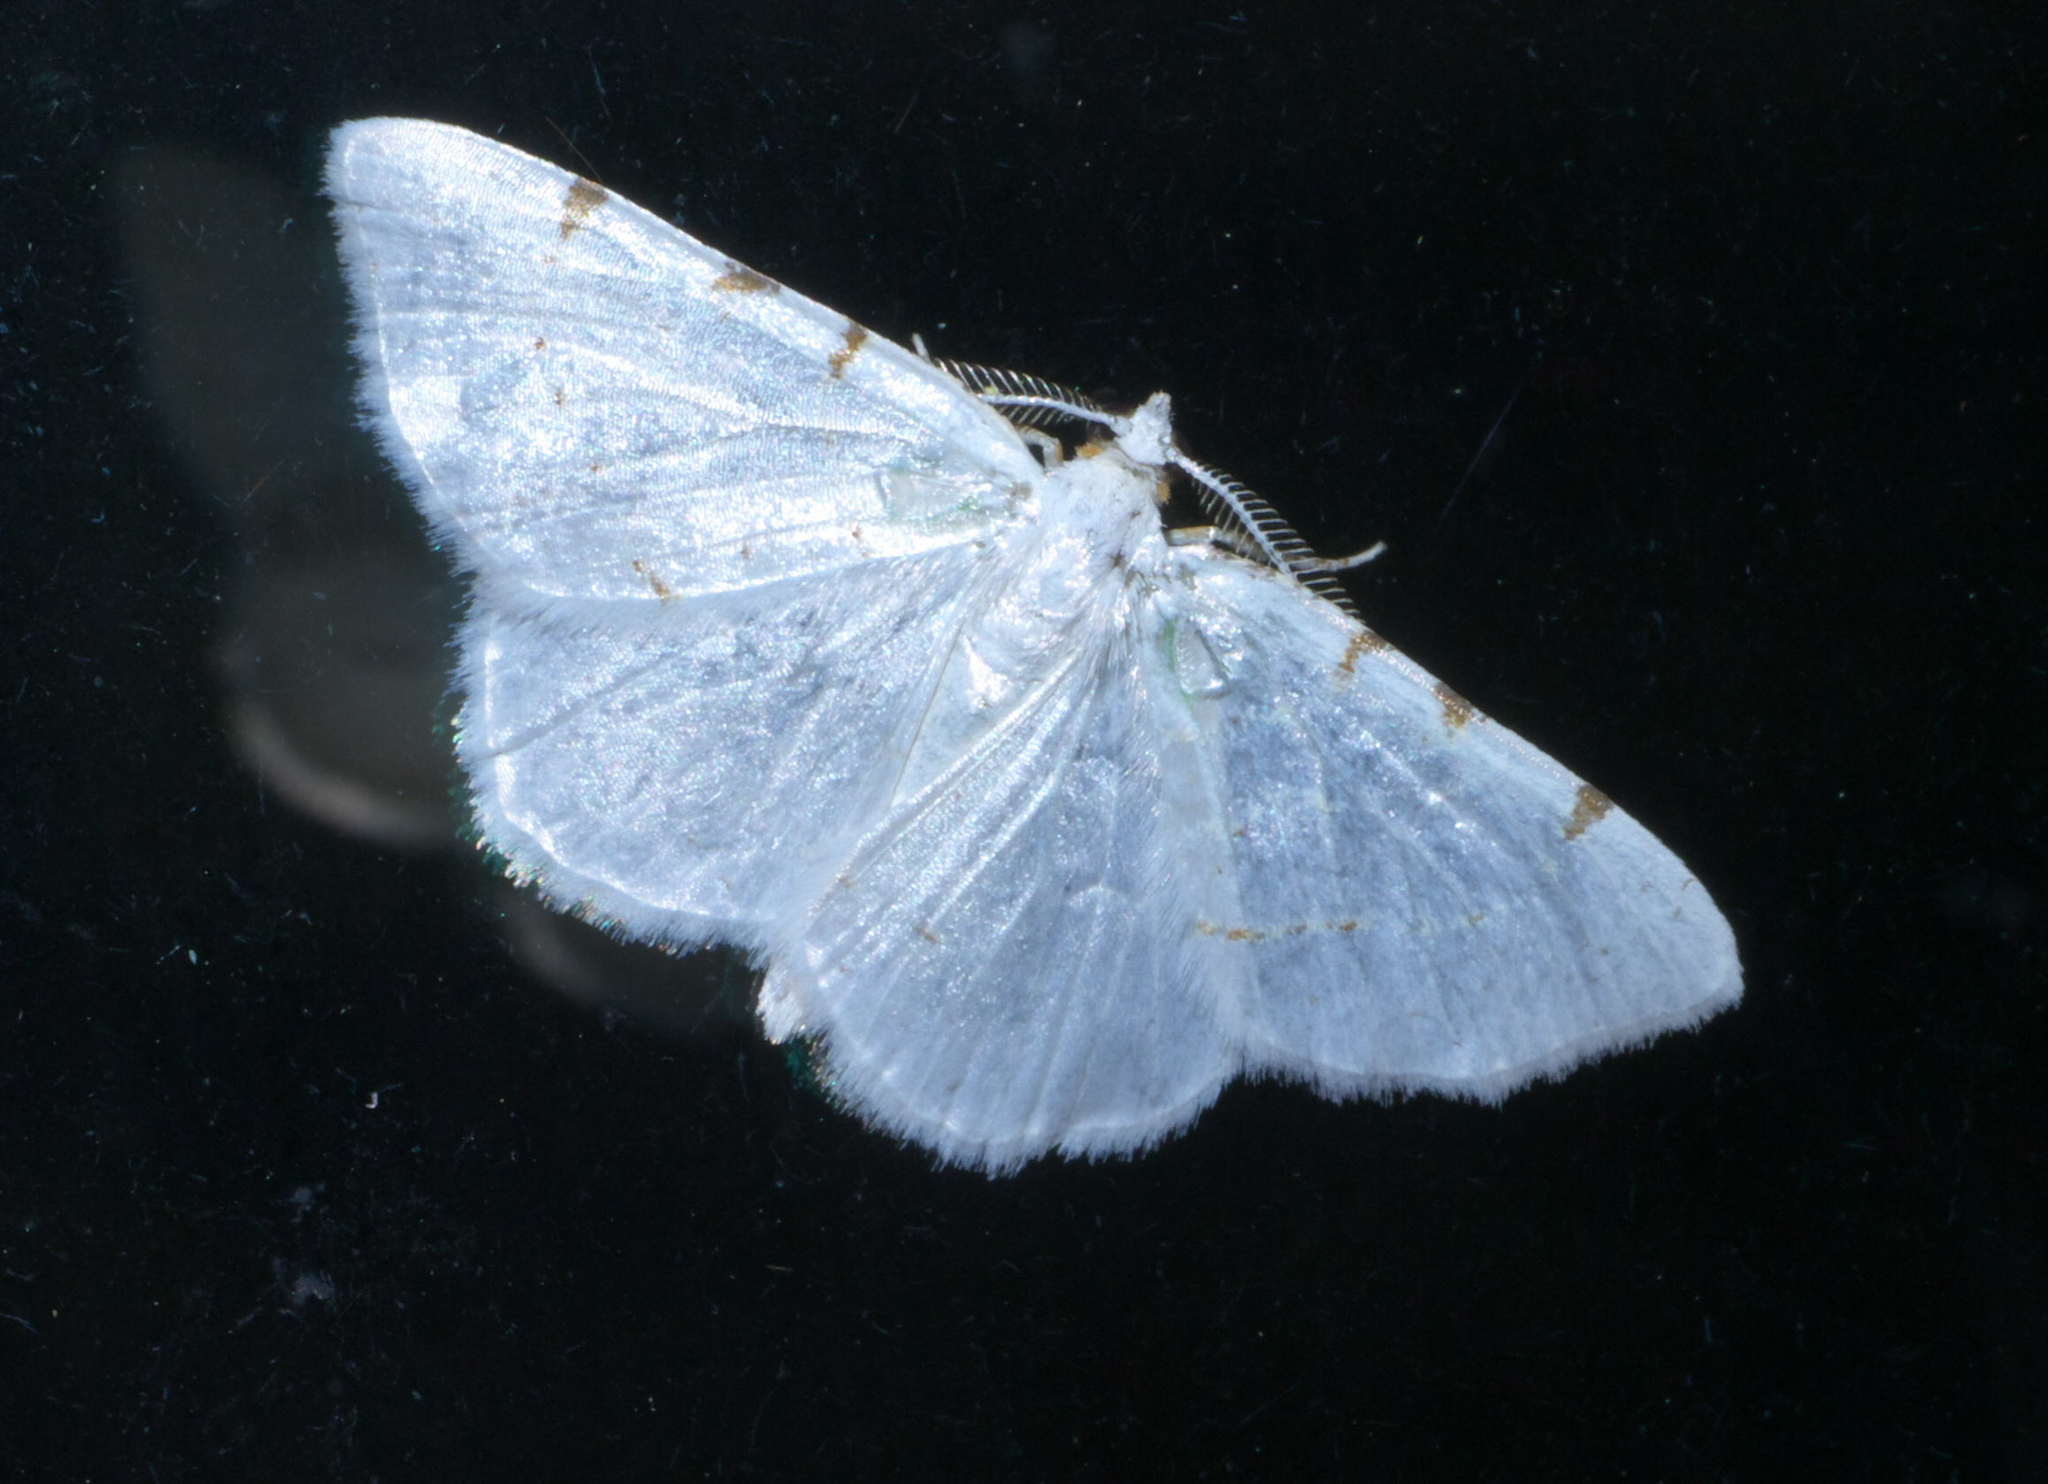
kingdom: Animalia
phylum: Arthropoda
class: Insecta
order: Lepidoptera
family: Geometridae
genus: Macaria
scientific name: Macaria pustularia
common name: Lesser maple spanworm moth
